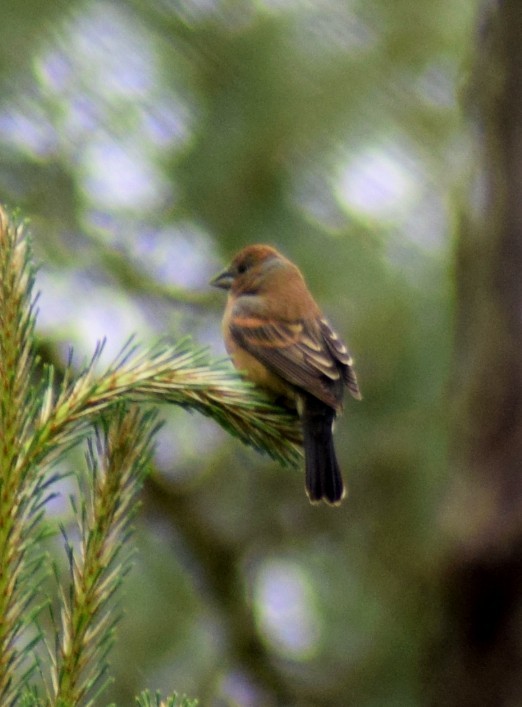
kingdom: Animalia
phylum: Chordata
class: Aves
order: Passeriformes
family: Cardinalidae
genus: Passerina
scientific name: Passerina caerulea
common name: Blue grosbeak
